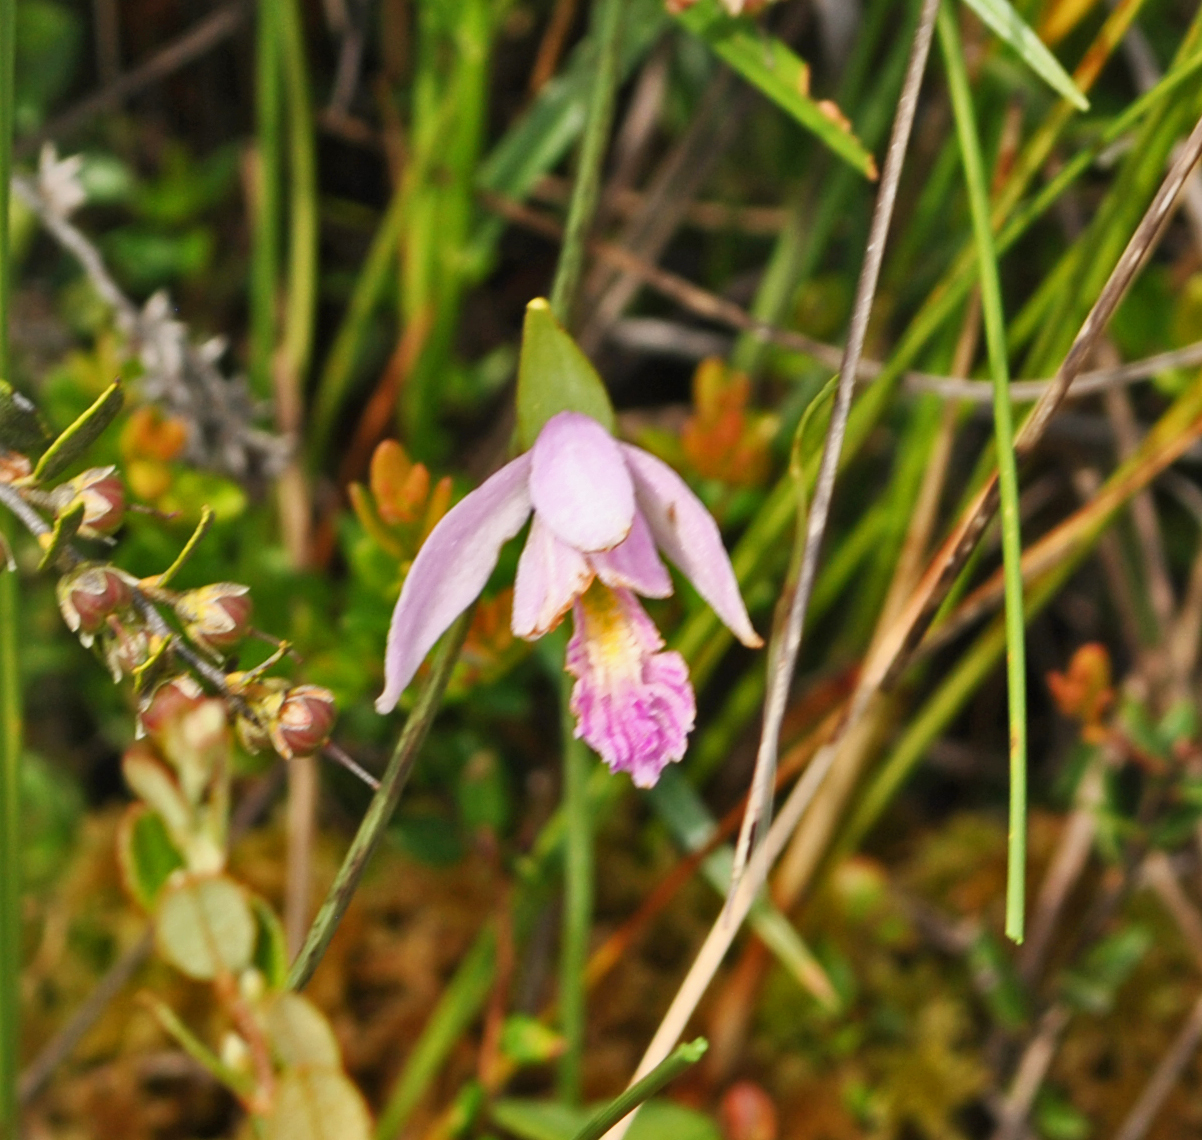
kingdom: Plantae
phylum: Tracheophyta
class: Liliopsida
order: Asparagales
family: Orchidaceae
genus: Pogonia
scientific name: Pogonia ophioglossoides
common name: Rose pogonia
